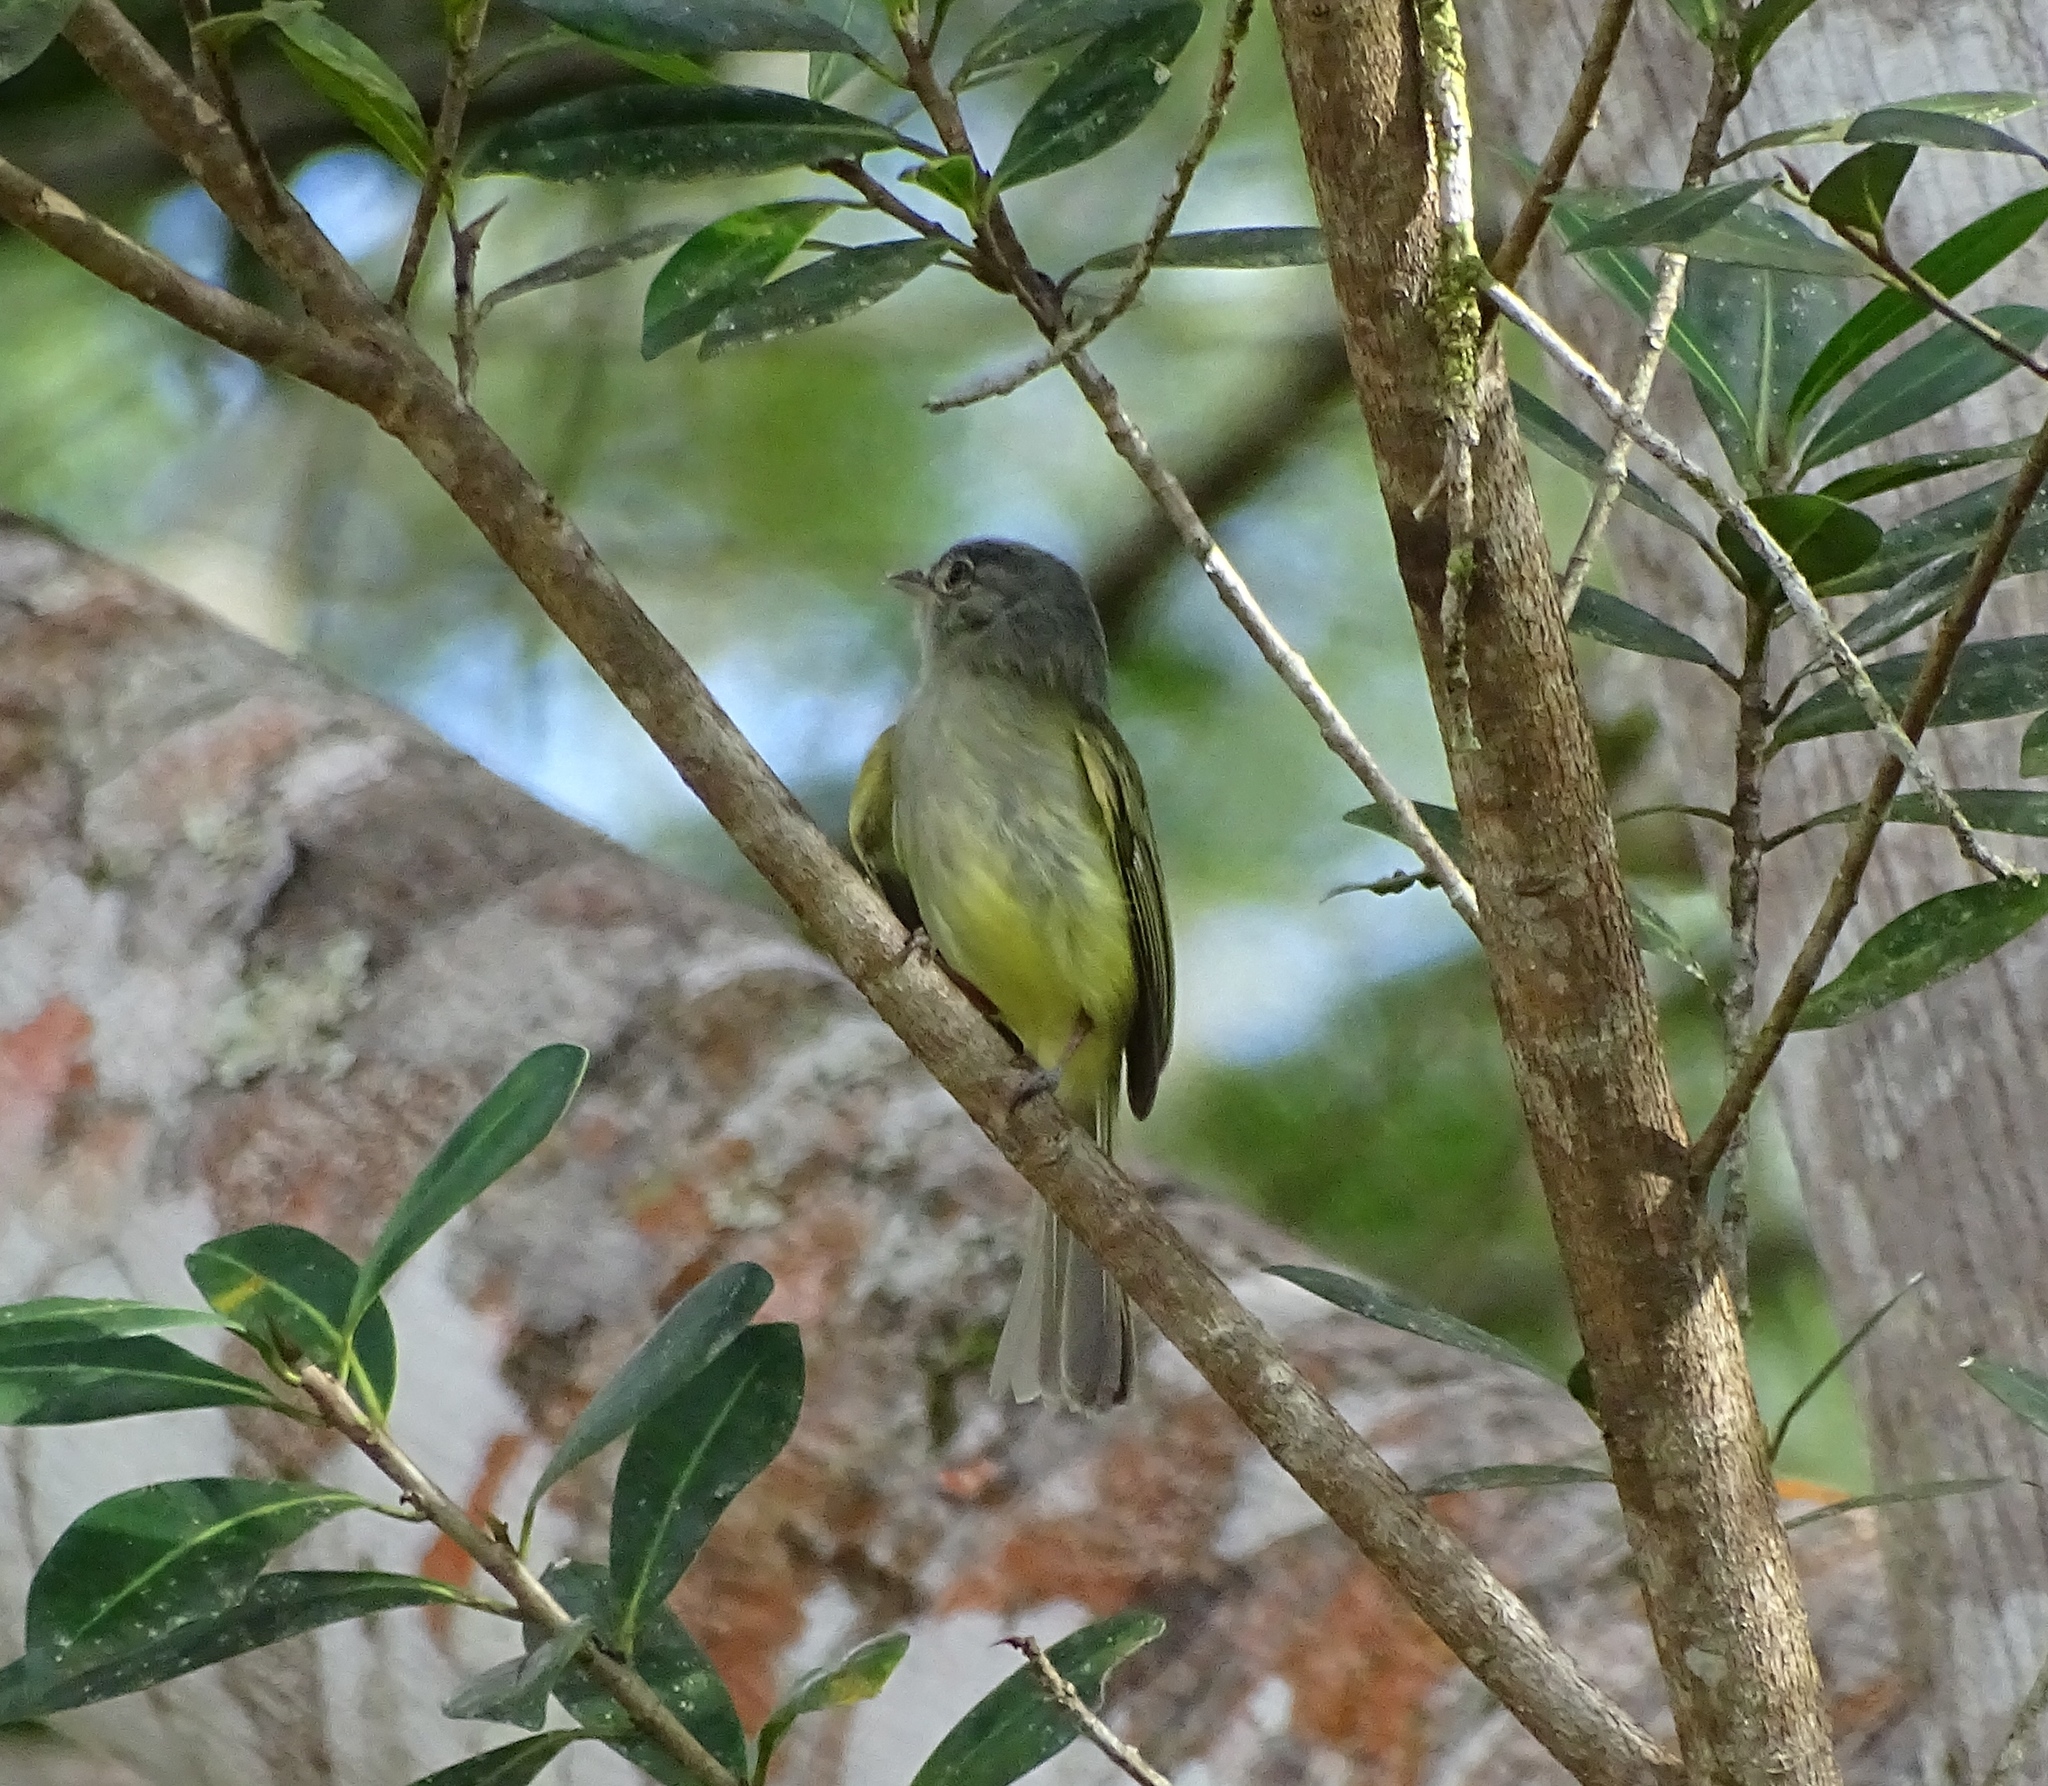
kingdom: Animalia
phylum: Chordata
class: Aves
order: Passeriformes
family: Tyrannidae
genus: Tolmomyias
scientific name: Tolmomyias sulphurescens
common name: Yellow-olive flycatcher
